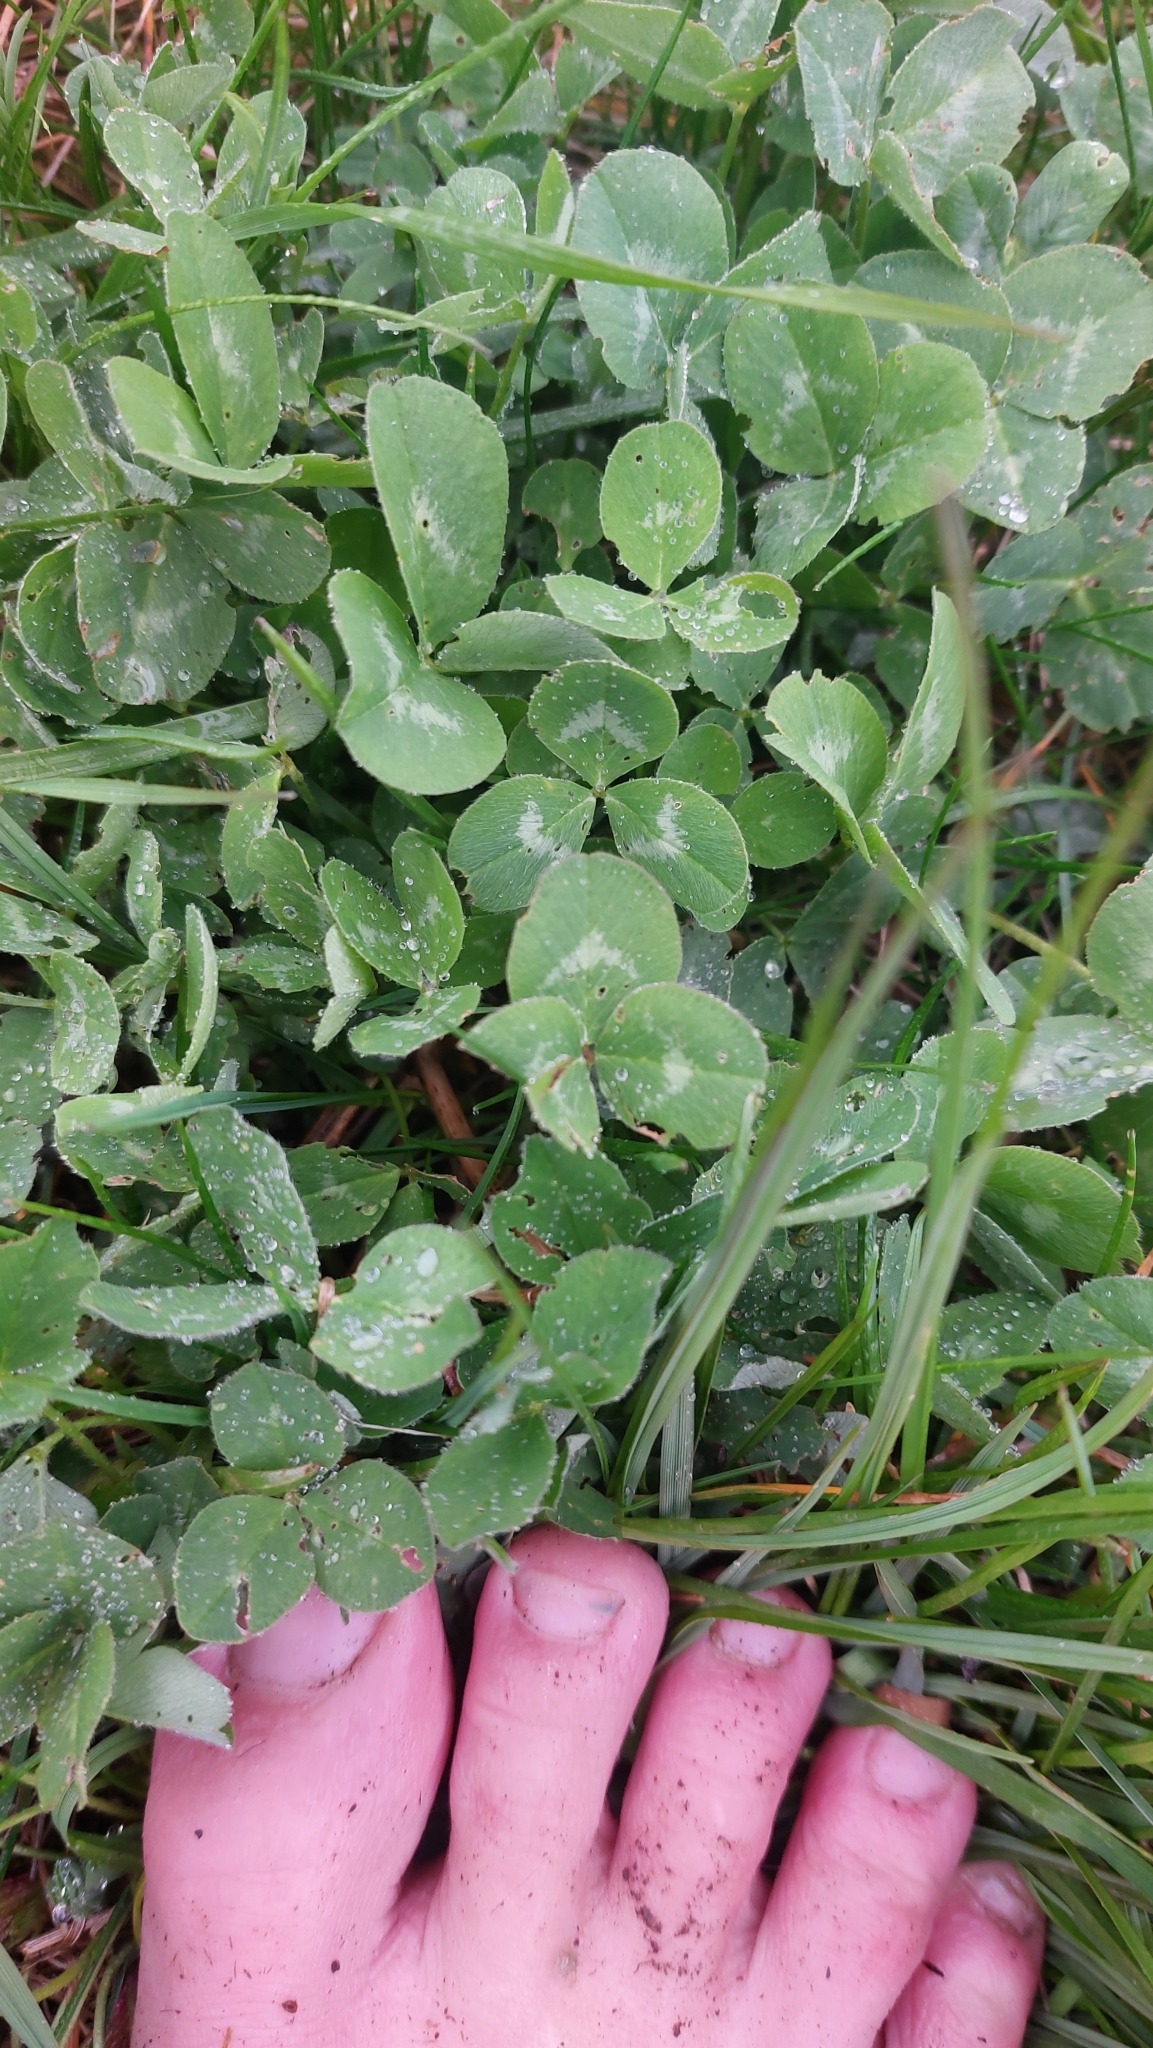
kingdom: Plantae
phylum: Tracheophyta
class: Magnoliopsida
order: Fabales
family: Fabaceae
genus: Trifolium
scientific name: Trifolium pratense
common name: Red clover
